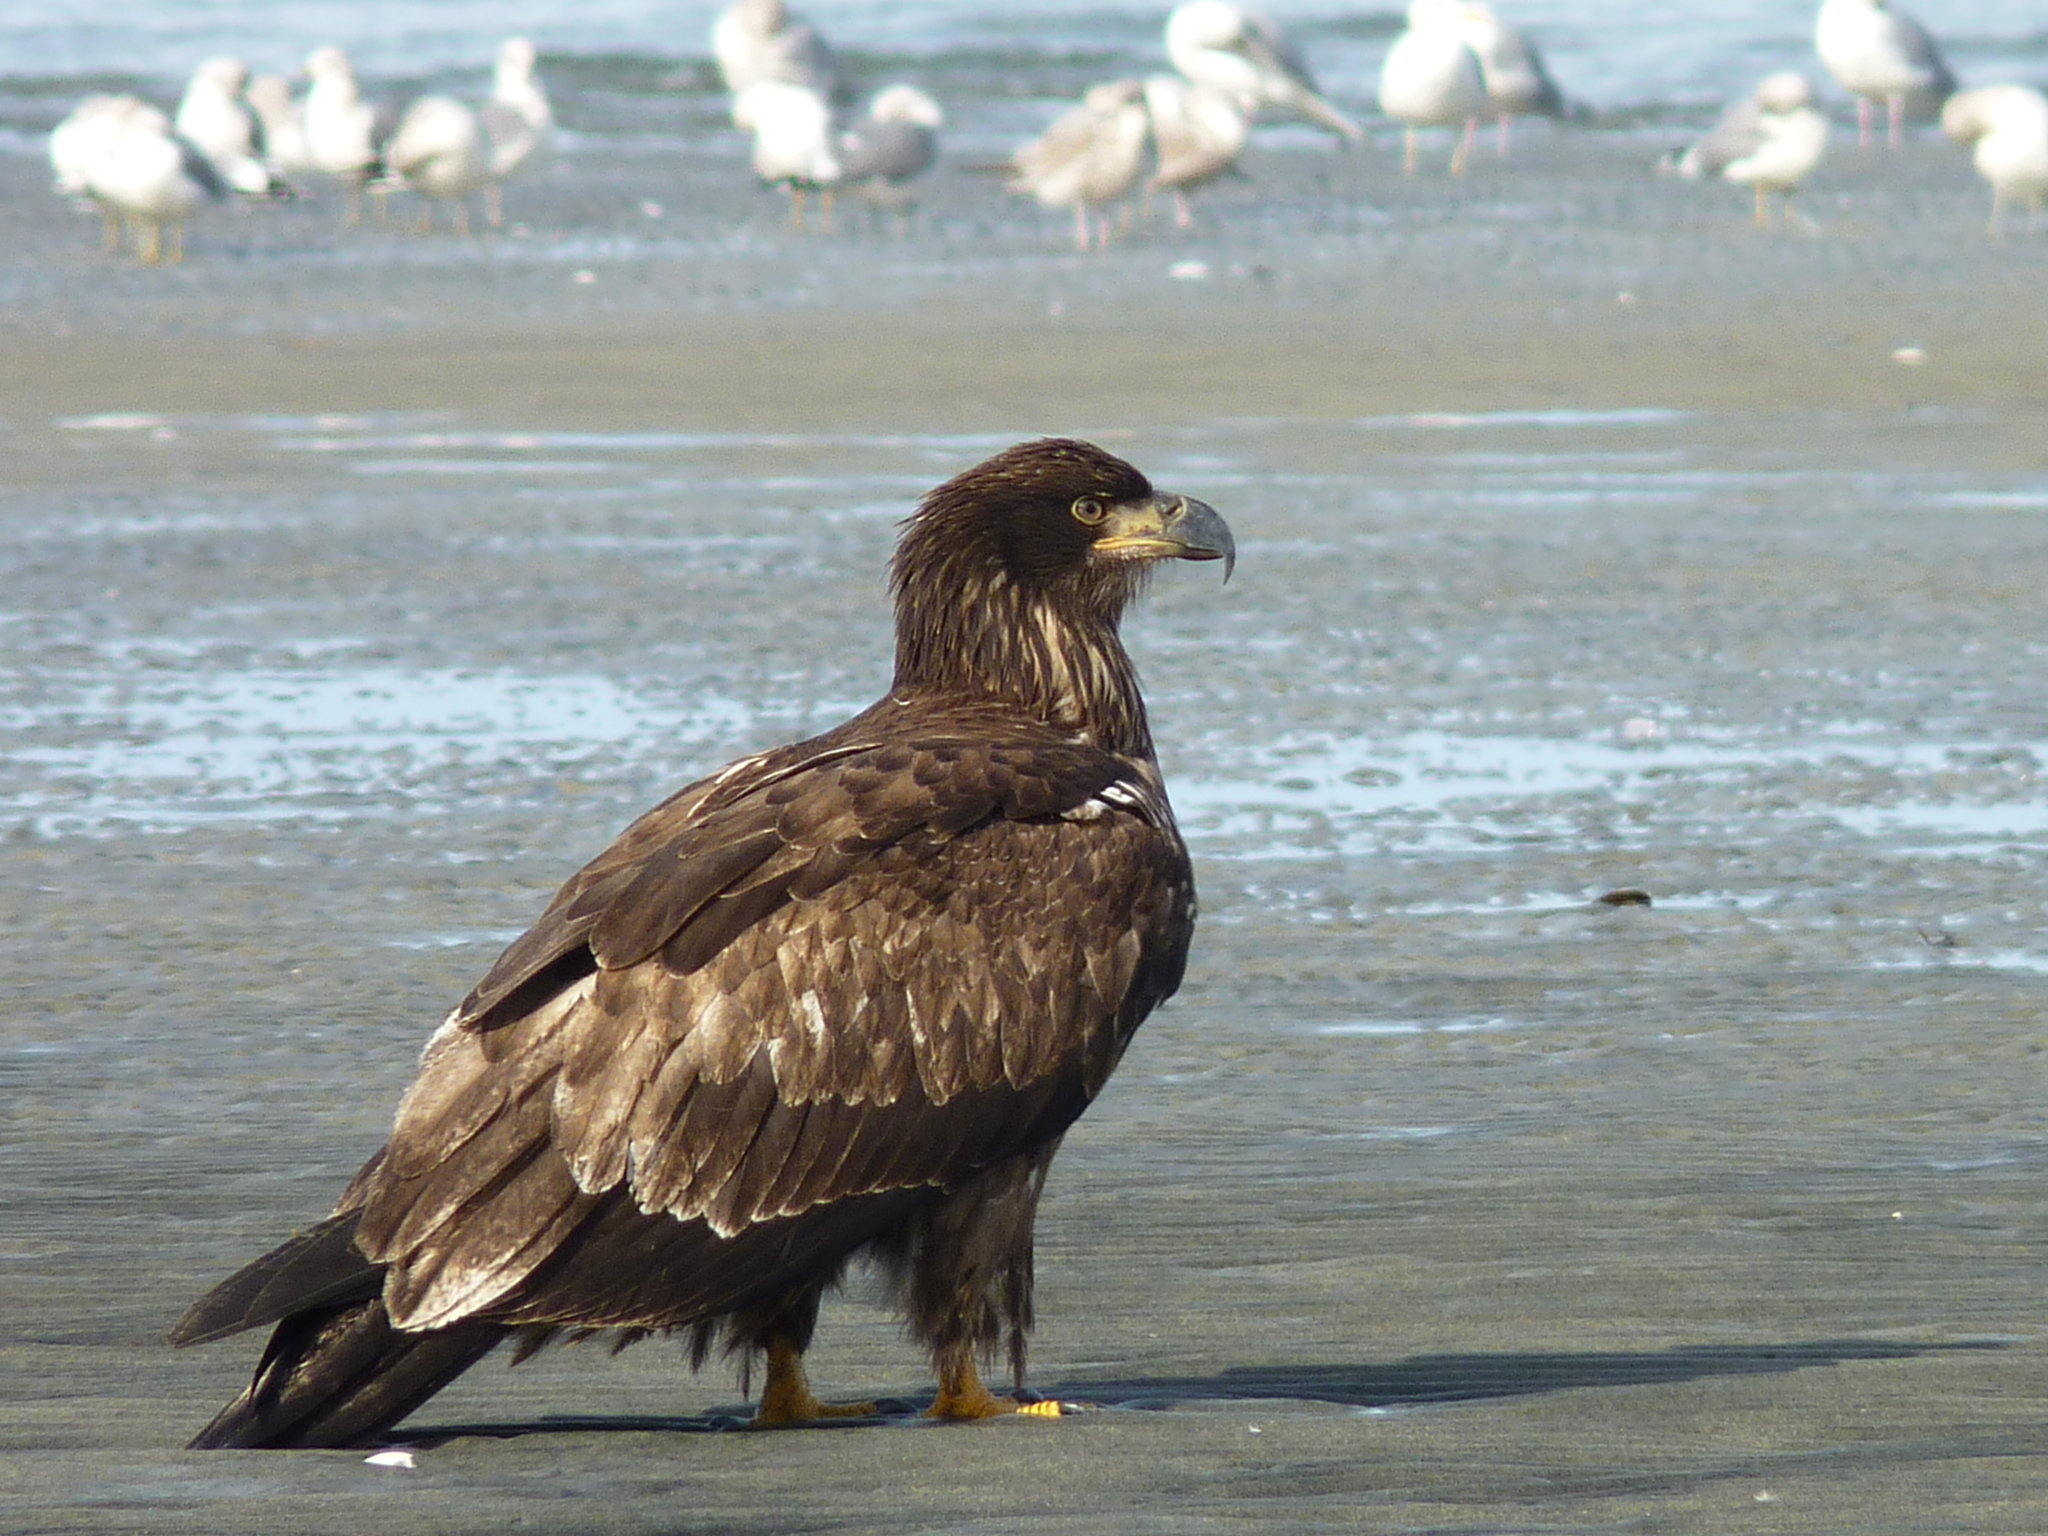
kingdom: Animalia
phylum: Chordata
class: Aves
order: Accipitriformes
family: Accipitridae
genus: Haliaeetus
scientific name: Haliaeetus leucocephalus
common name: Bald eagle
